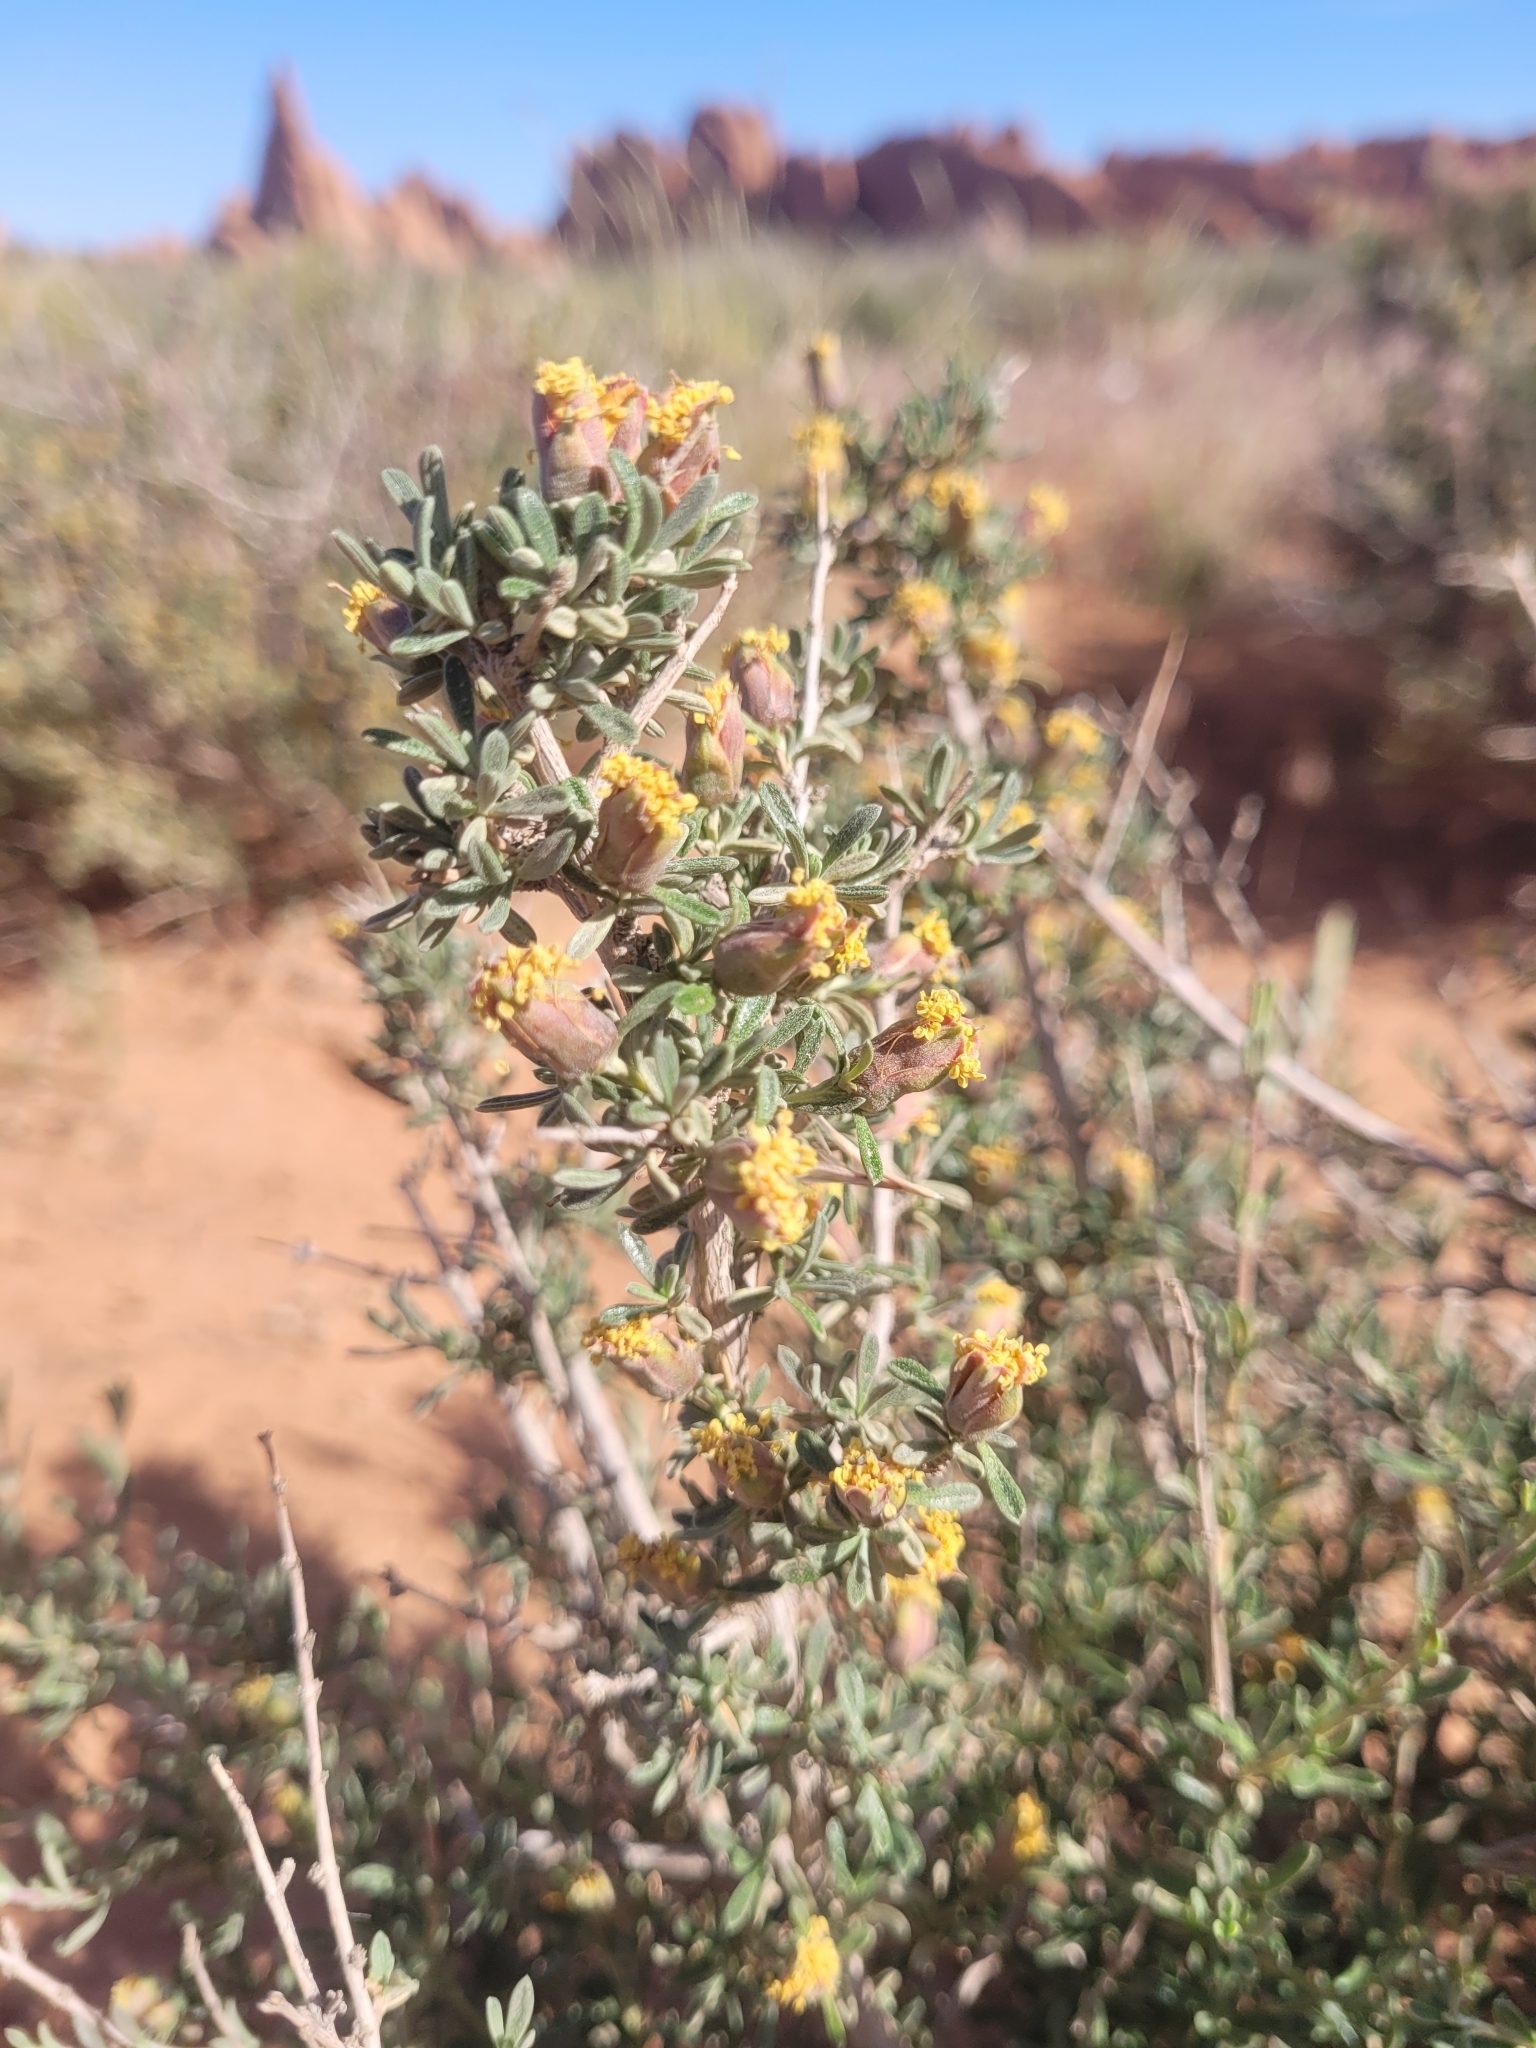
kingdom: Plantae
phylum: Tracheophyta
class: Magnoliopsida
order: Rosales
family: Rosaceae
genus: Coleogyne
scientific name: Coleogyne ramosissima
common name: Blackbrush
